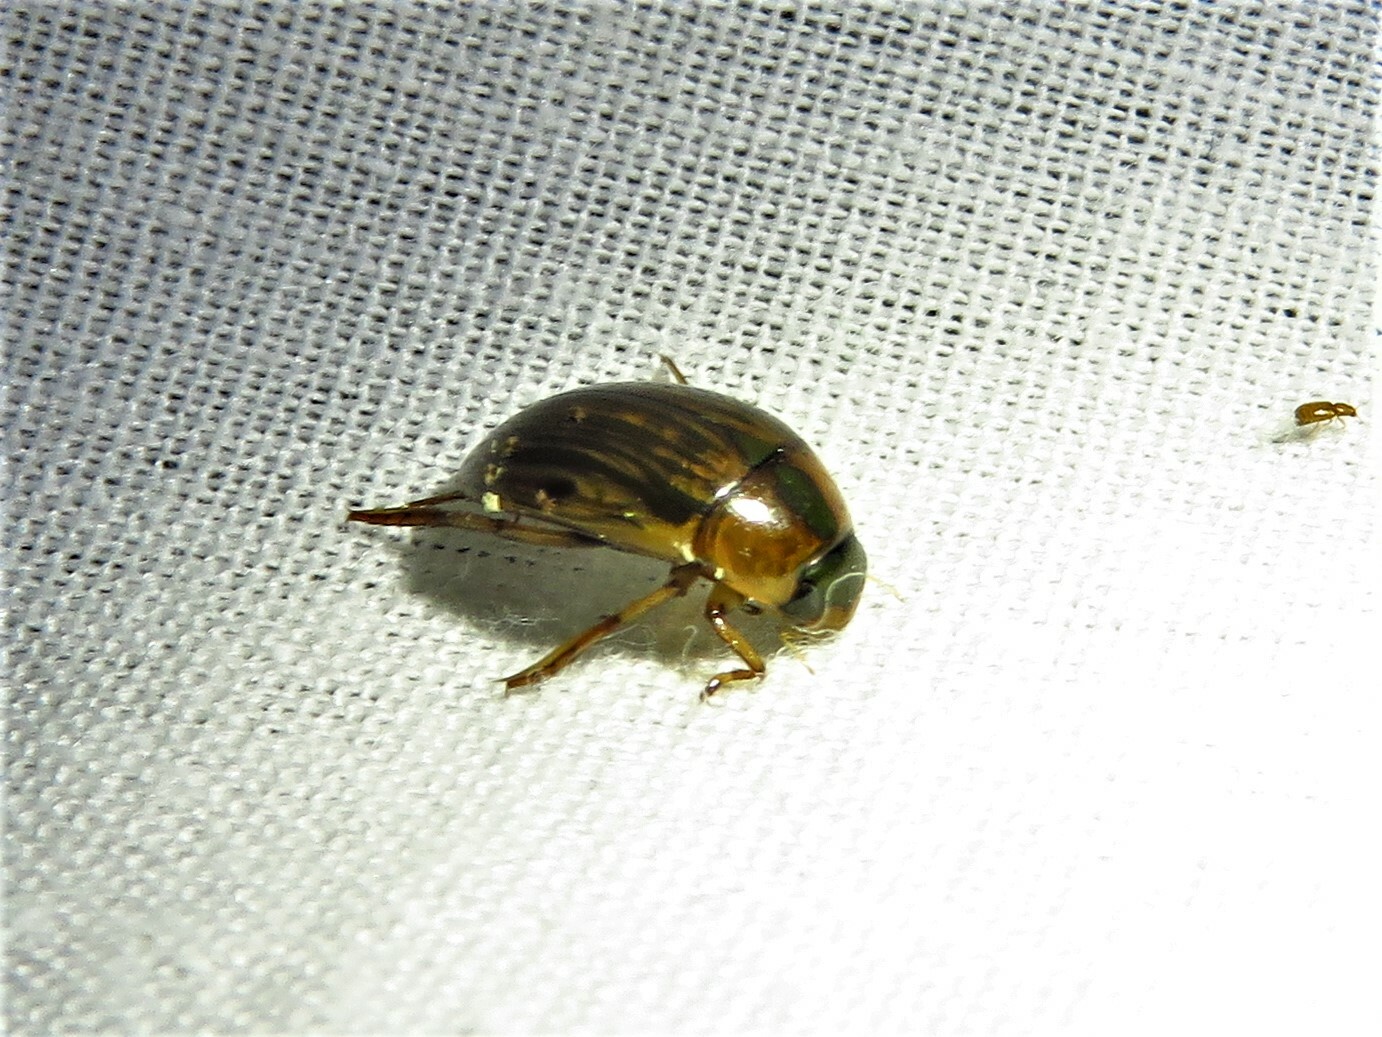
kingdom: Animalia
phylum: Arthropoda
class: Insecta
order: Coleoptera
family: Hydrophilidae
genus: Tropisternus
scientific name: Tropisternus collaris
